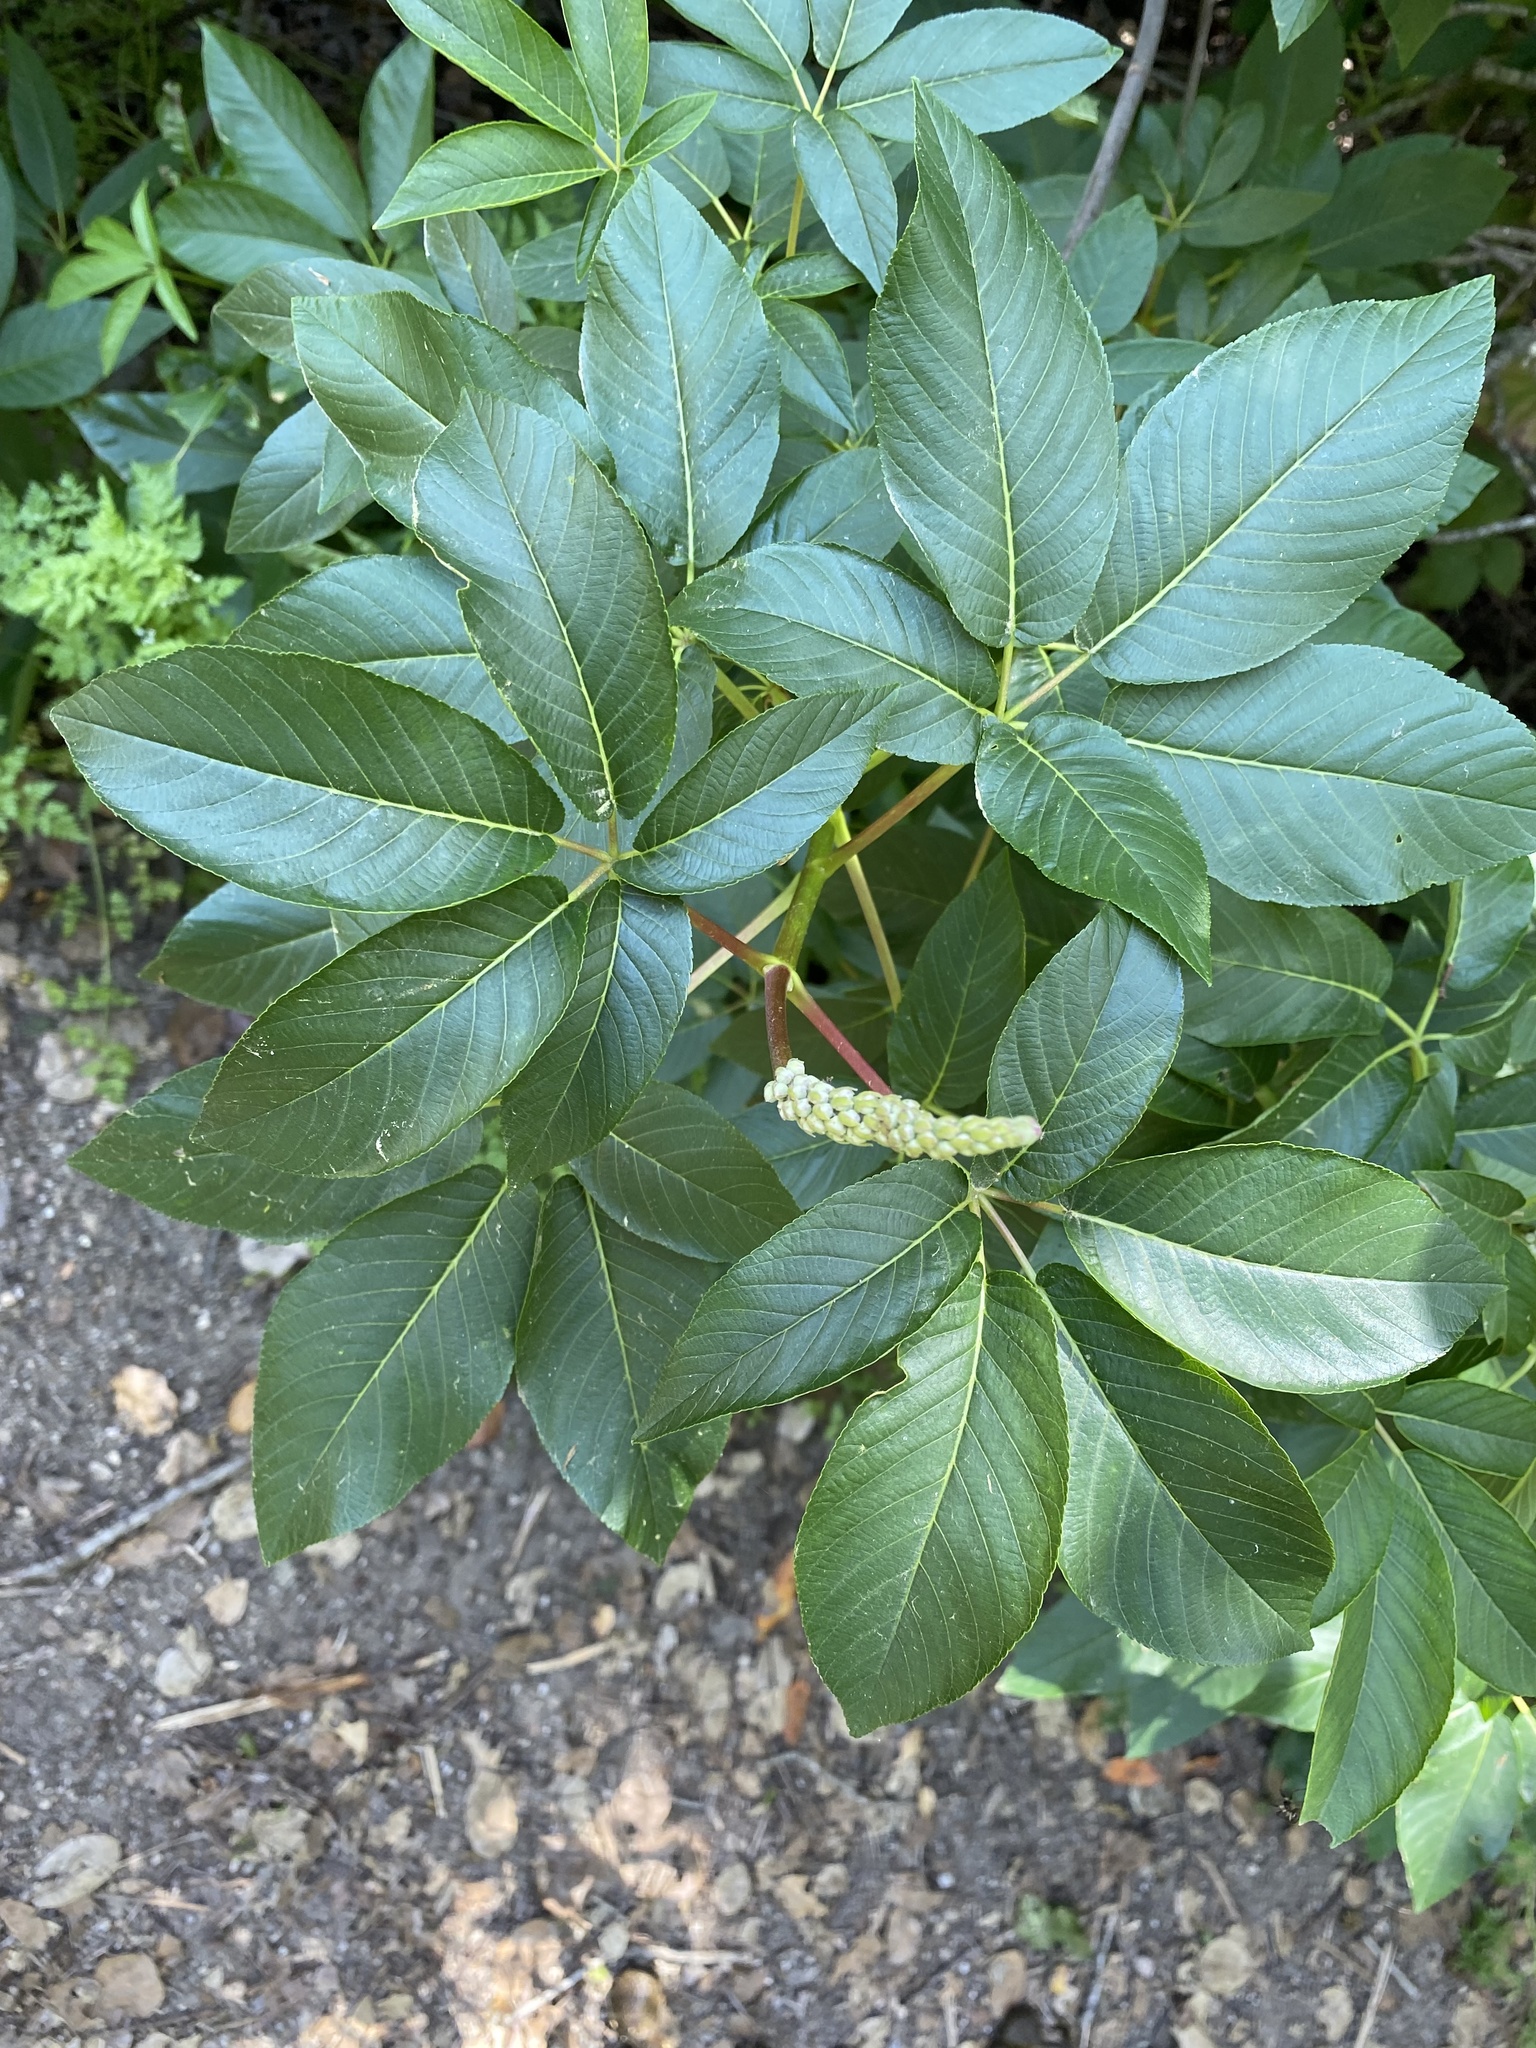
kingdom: Plantae
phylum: Tracheophyta
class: Magnoliopsida
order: Sapindales
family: Sapindaceae
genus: Aesculus
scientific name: Aesculus californica
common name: California buckeye
